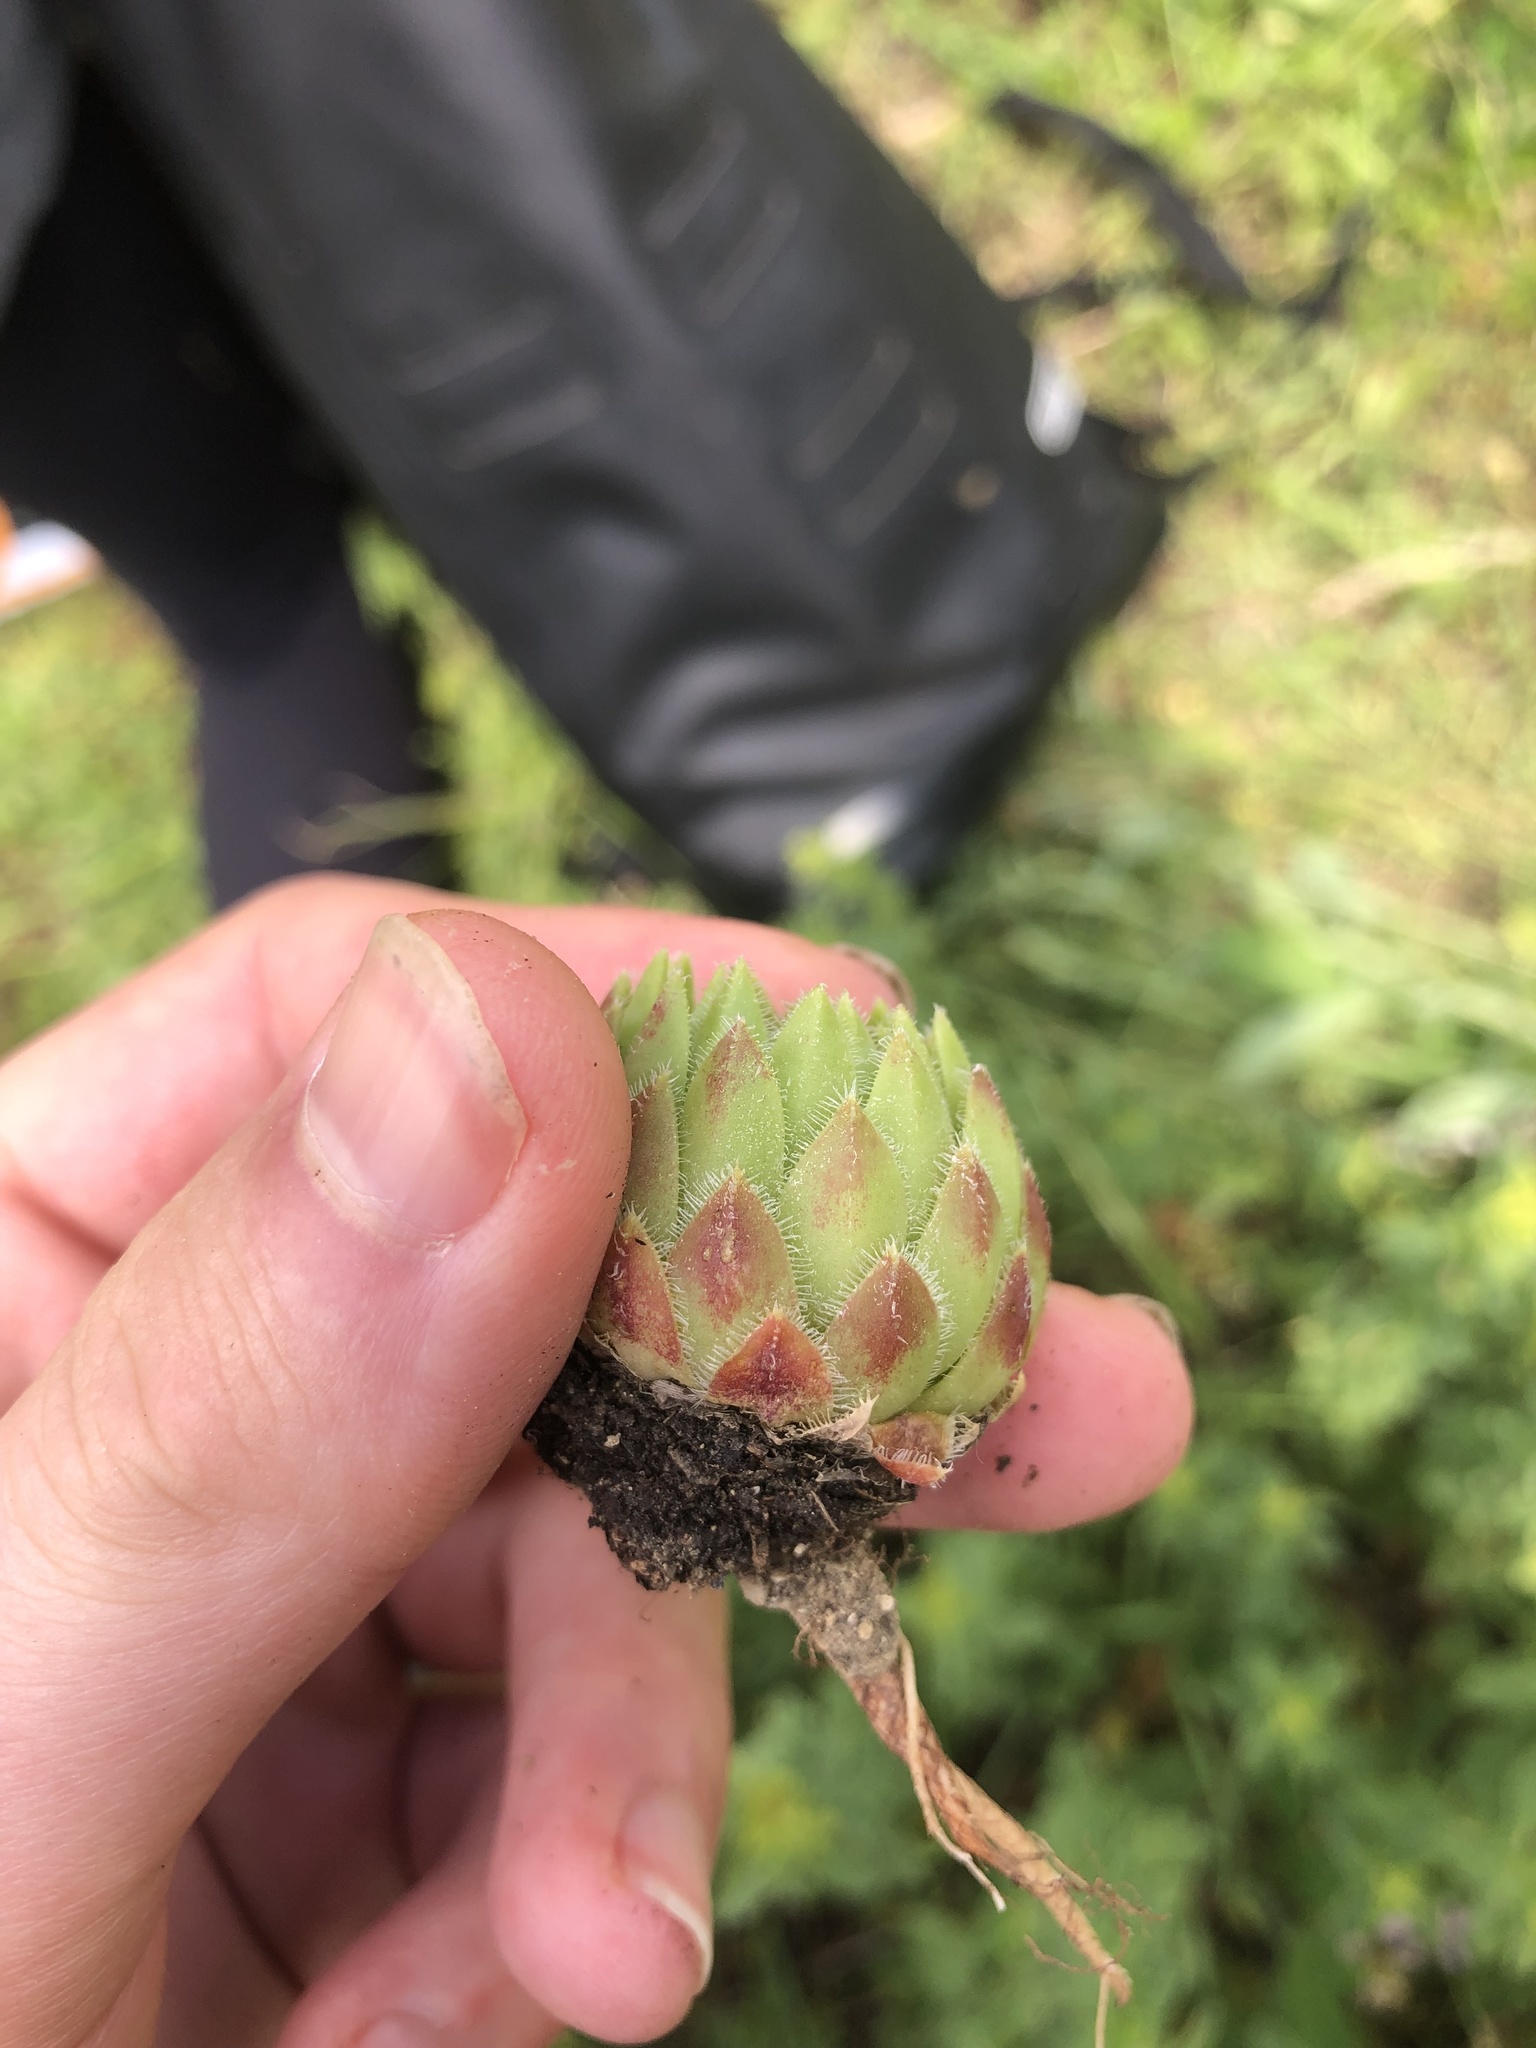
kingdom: Plantae
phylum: Tracheophyta
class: Magnoliopsida
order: Saxifragales
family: Crassulaceae
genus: Sempervivum
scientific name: Sempervivum globiferum
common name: Rolling hen-and-chicks
